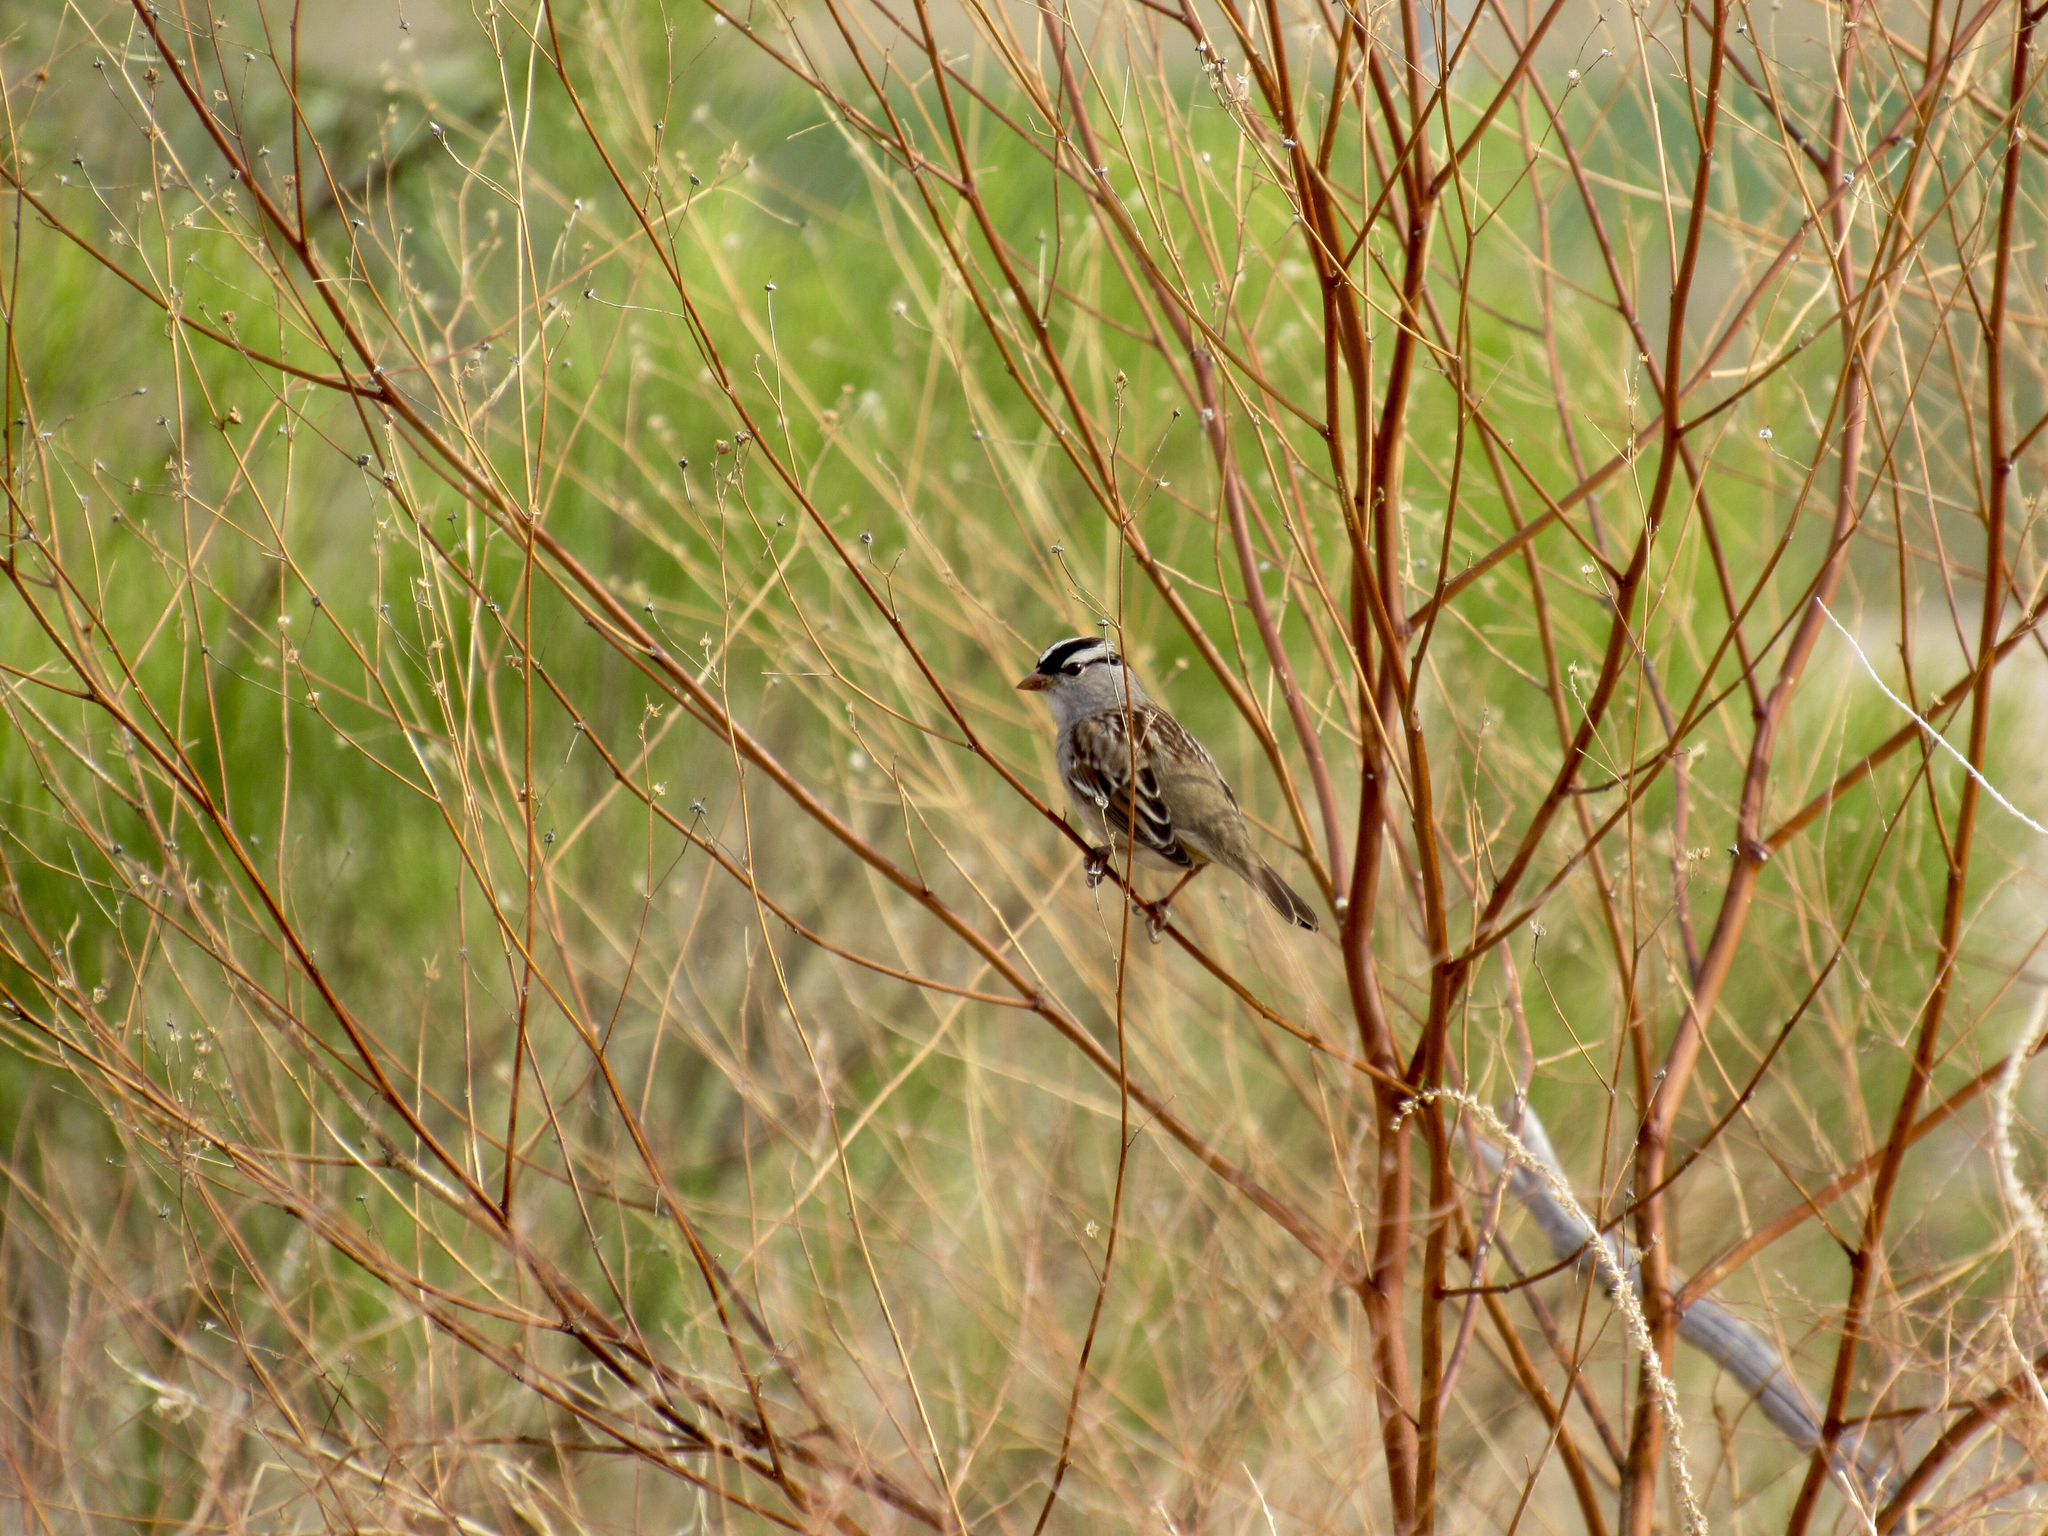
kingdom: Animalia
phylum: Chordata
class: Aves
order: Passeriformes
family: Passerellidae
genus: Zonotrichia
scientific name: Zonotrichia leucophrys
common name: White-crowned sparrow
